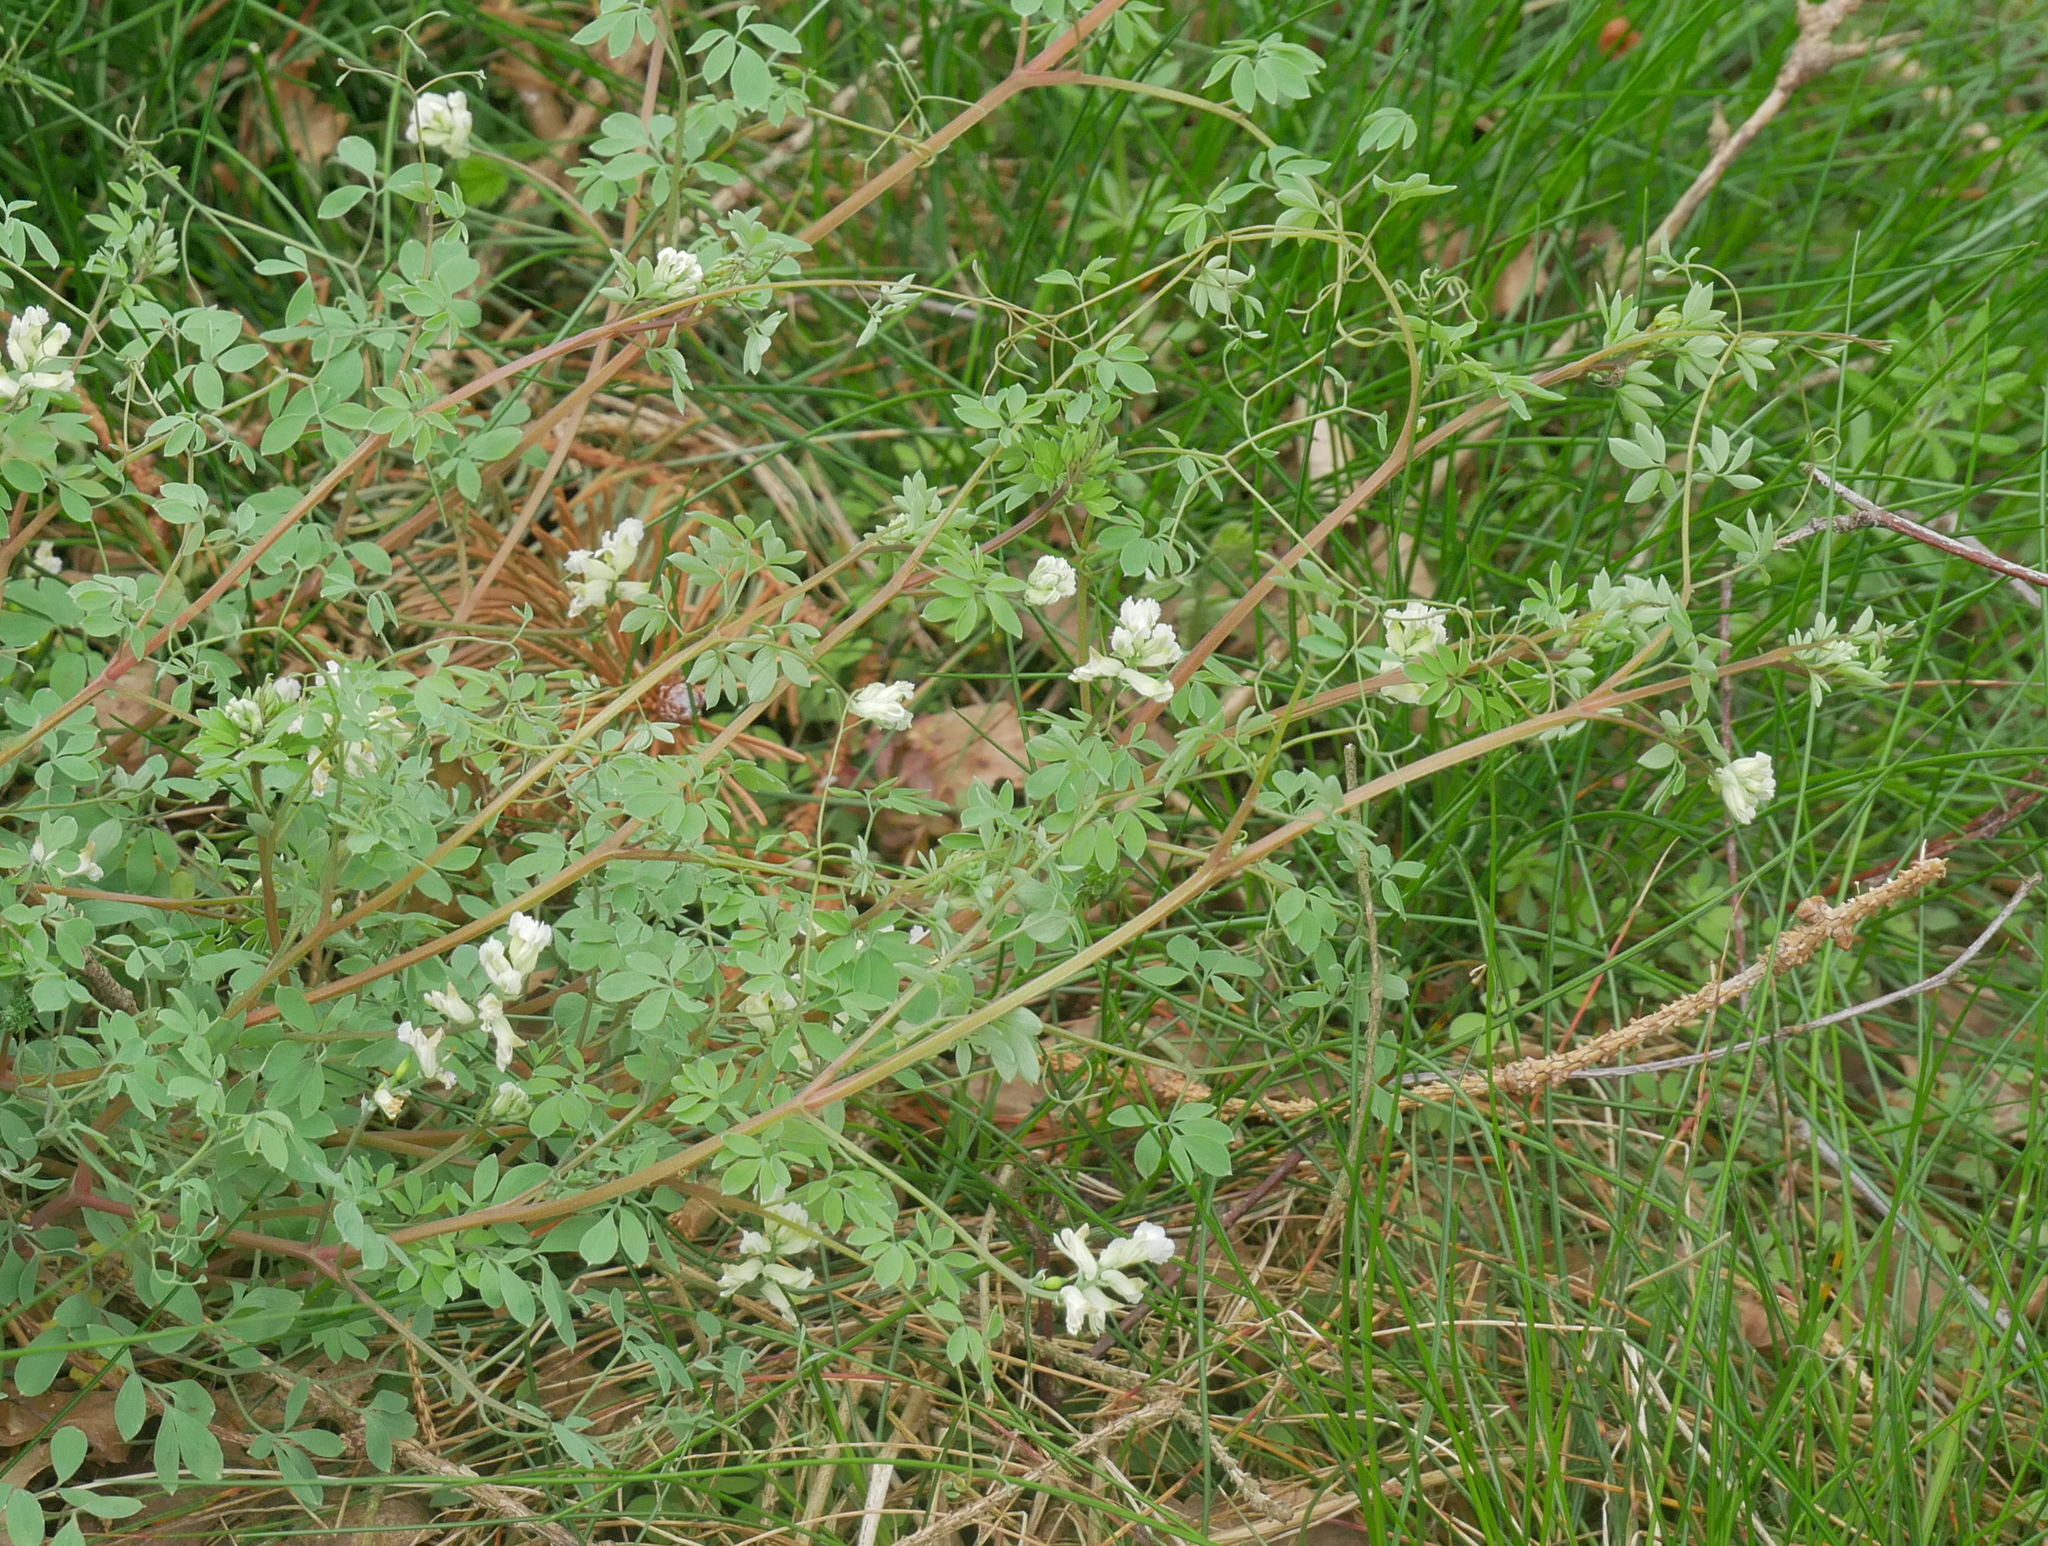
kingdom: Plantae
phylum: Tracheophyta
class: Magnoliopsida
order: Ranunculales
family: Papaveraceae
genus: Ceratocapnos
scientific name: Ceratocapnos claviculata
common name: Climbing corydalis
